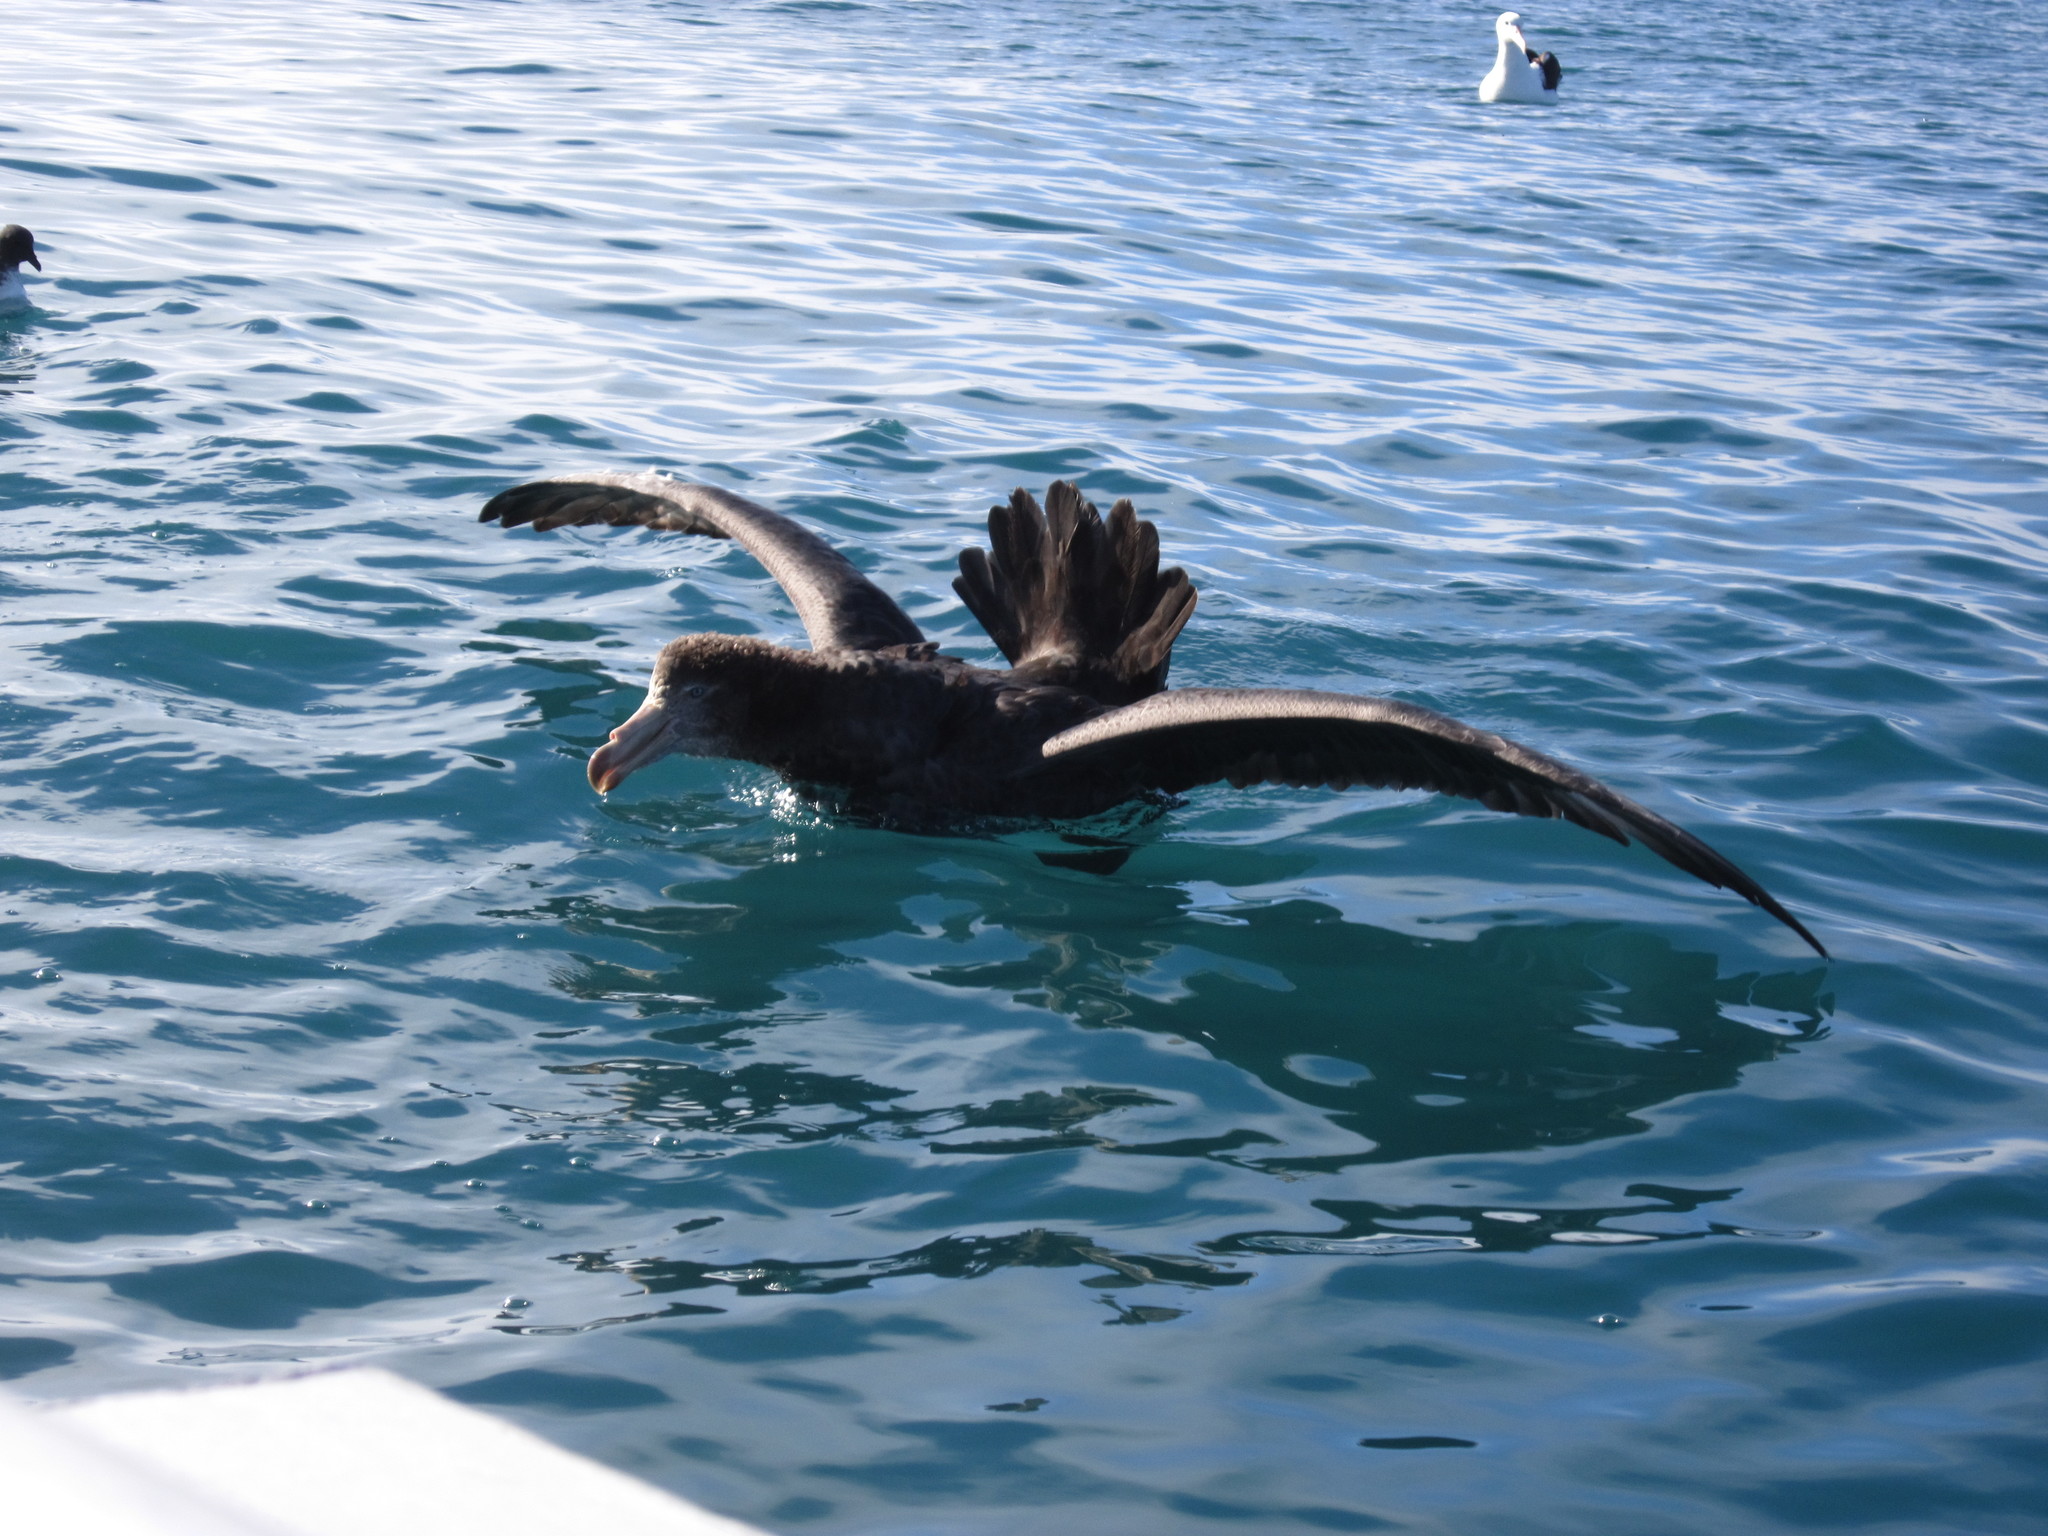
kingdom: Animalia
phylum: Chordata
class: Aves
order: Procellariiformes
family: Procellariidae
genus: Macronectes
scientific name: Macronectes halli
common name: Northern giant petrel
